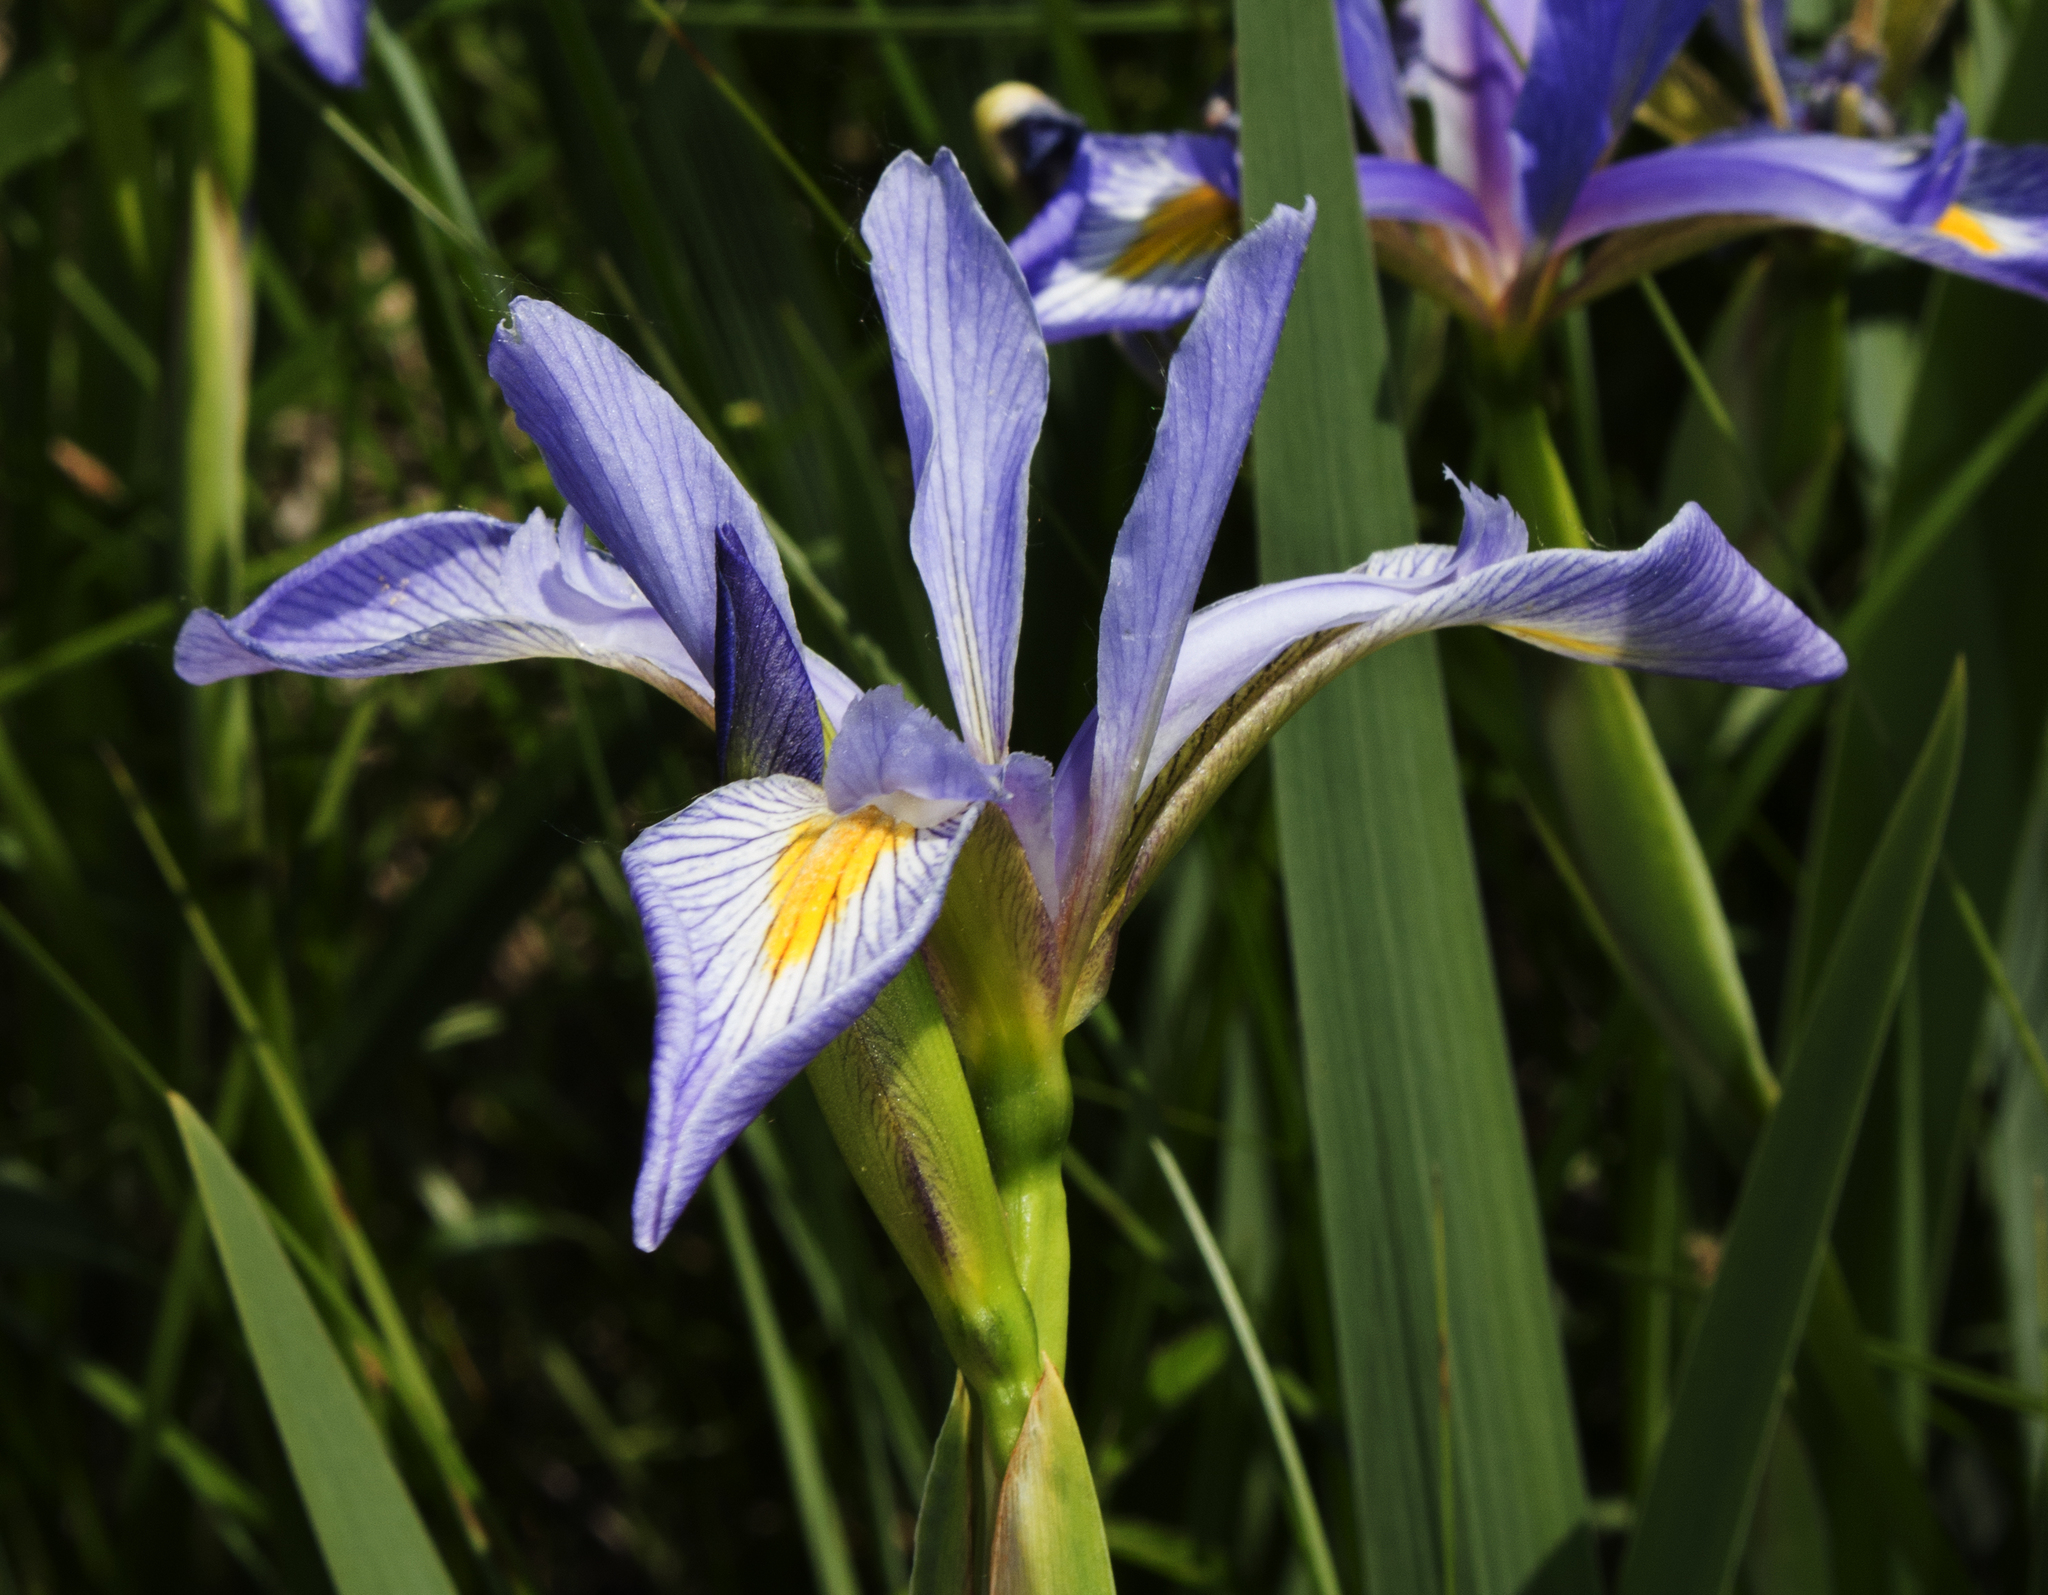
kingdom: Plantae
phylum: Tracheophyta
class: Liliopsida
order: Asparagales
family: Iridaceae
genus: Iris
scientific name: Iris virginica
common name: Southern blue flag
